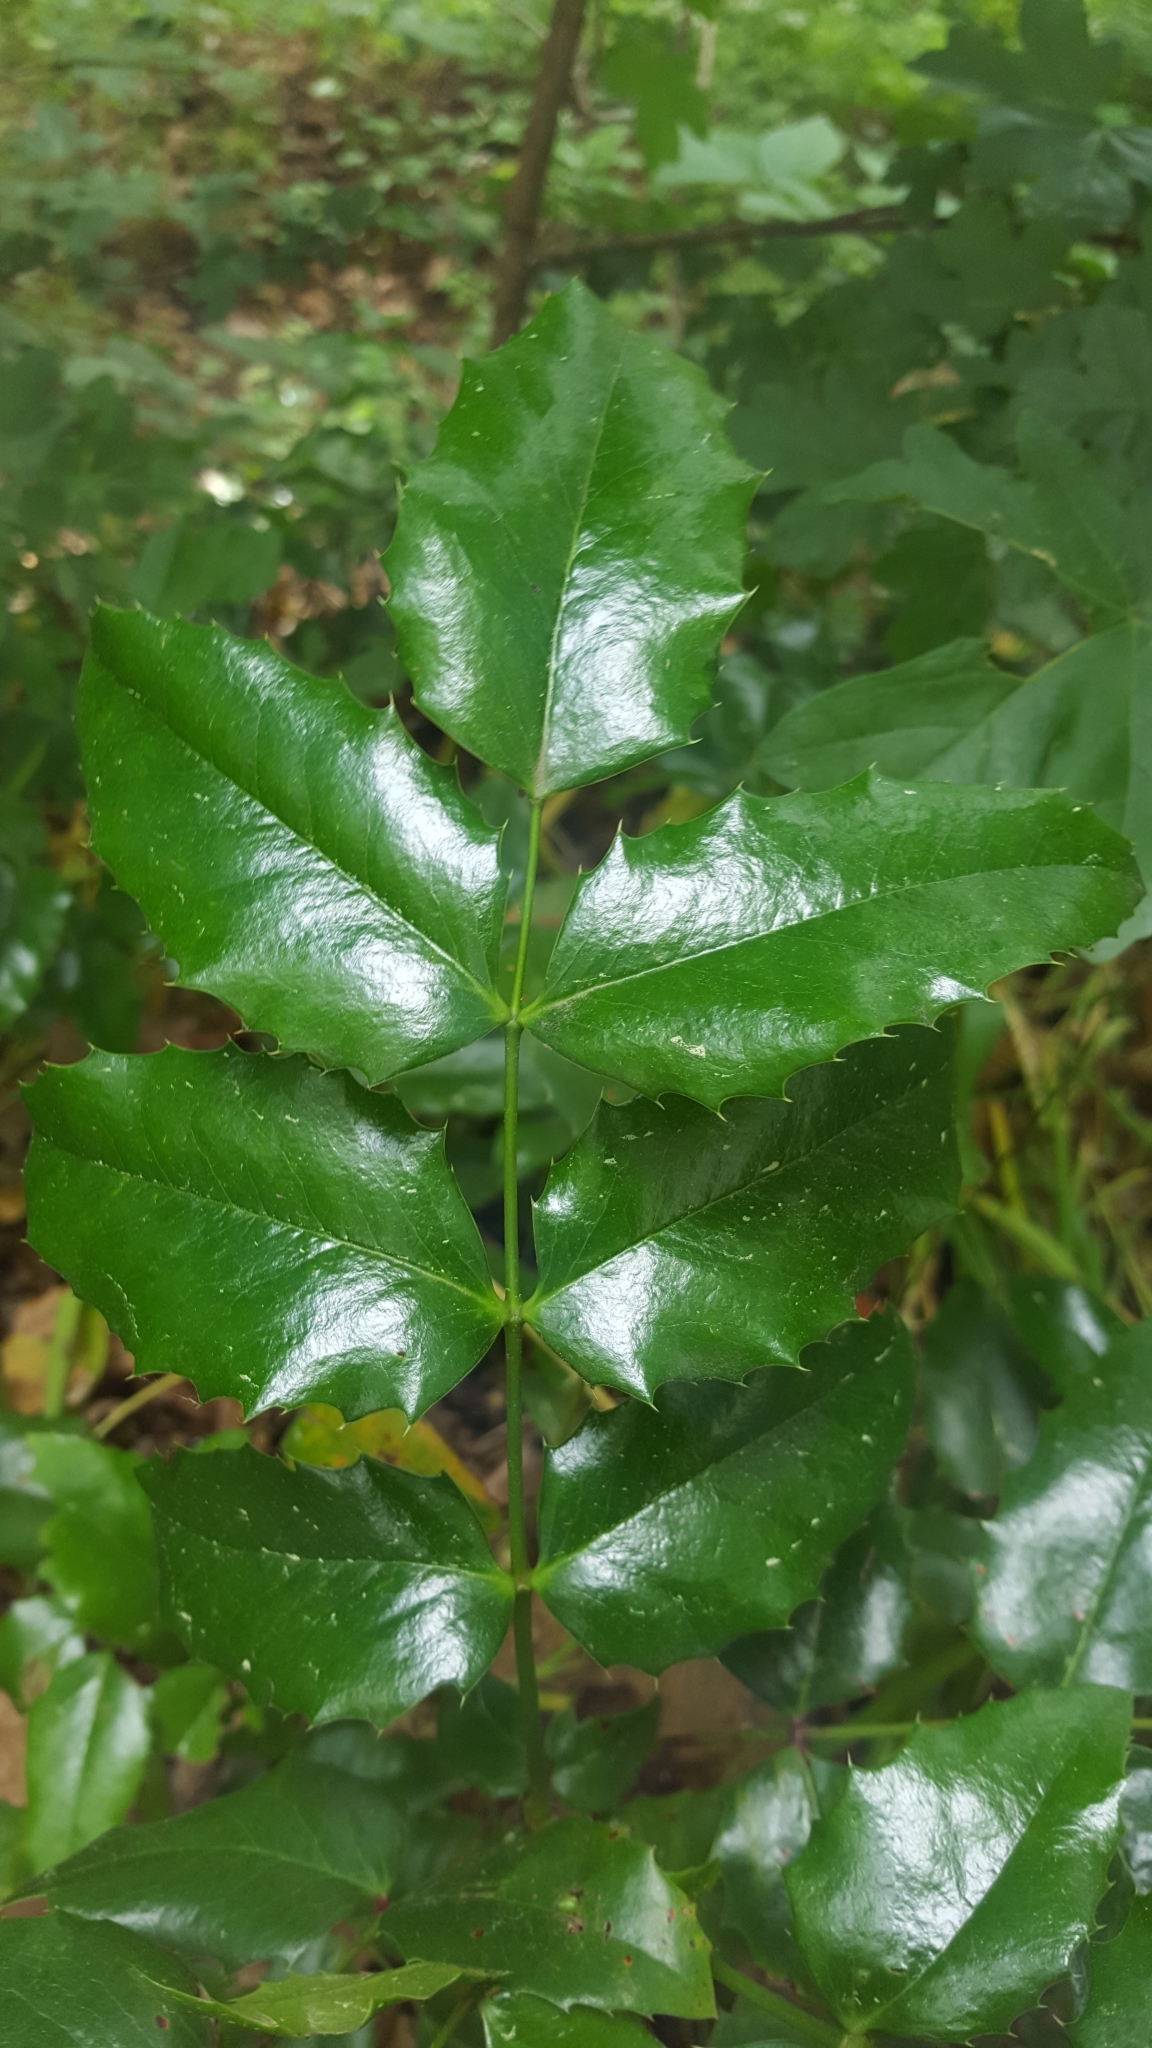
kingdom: Plantae
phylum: Tracheophyta
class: Magnoliopsida
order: Ranunculales
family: Berberidaceae
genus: Mahonia
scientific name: Mahonia aquifolium
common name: Oregon-grape
